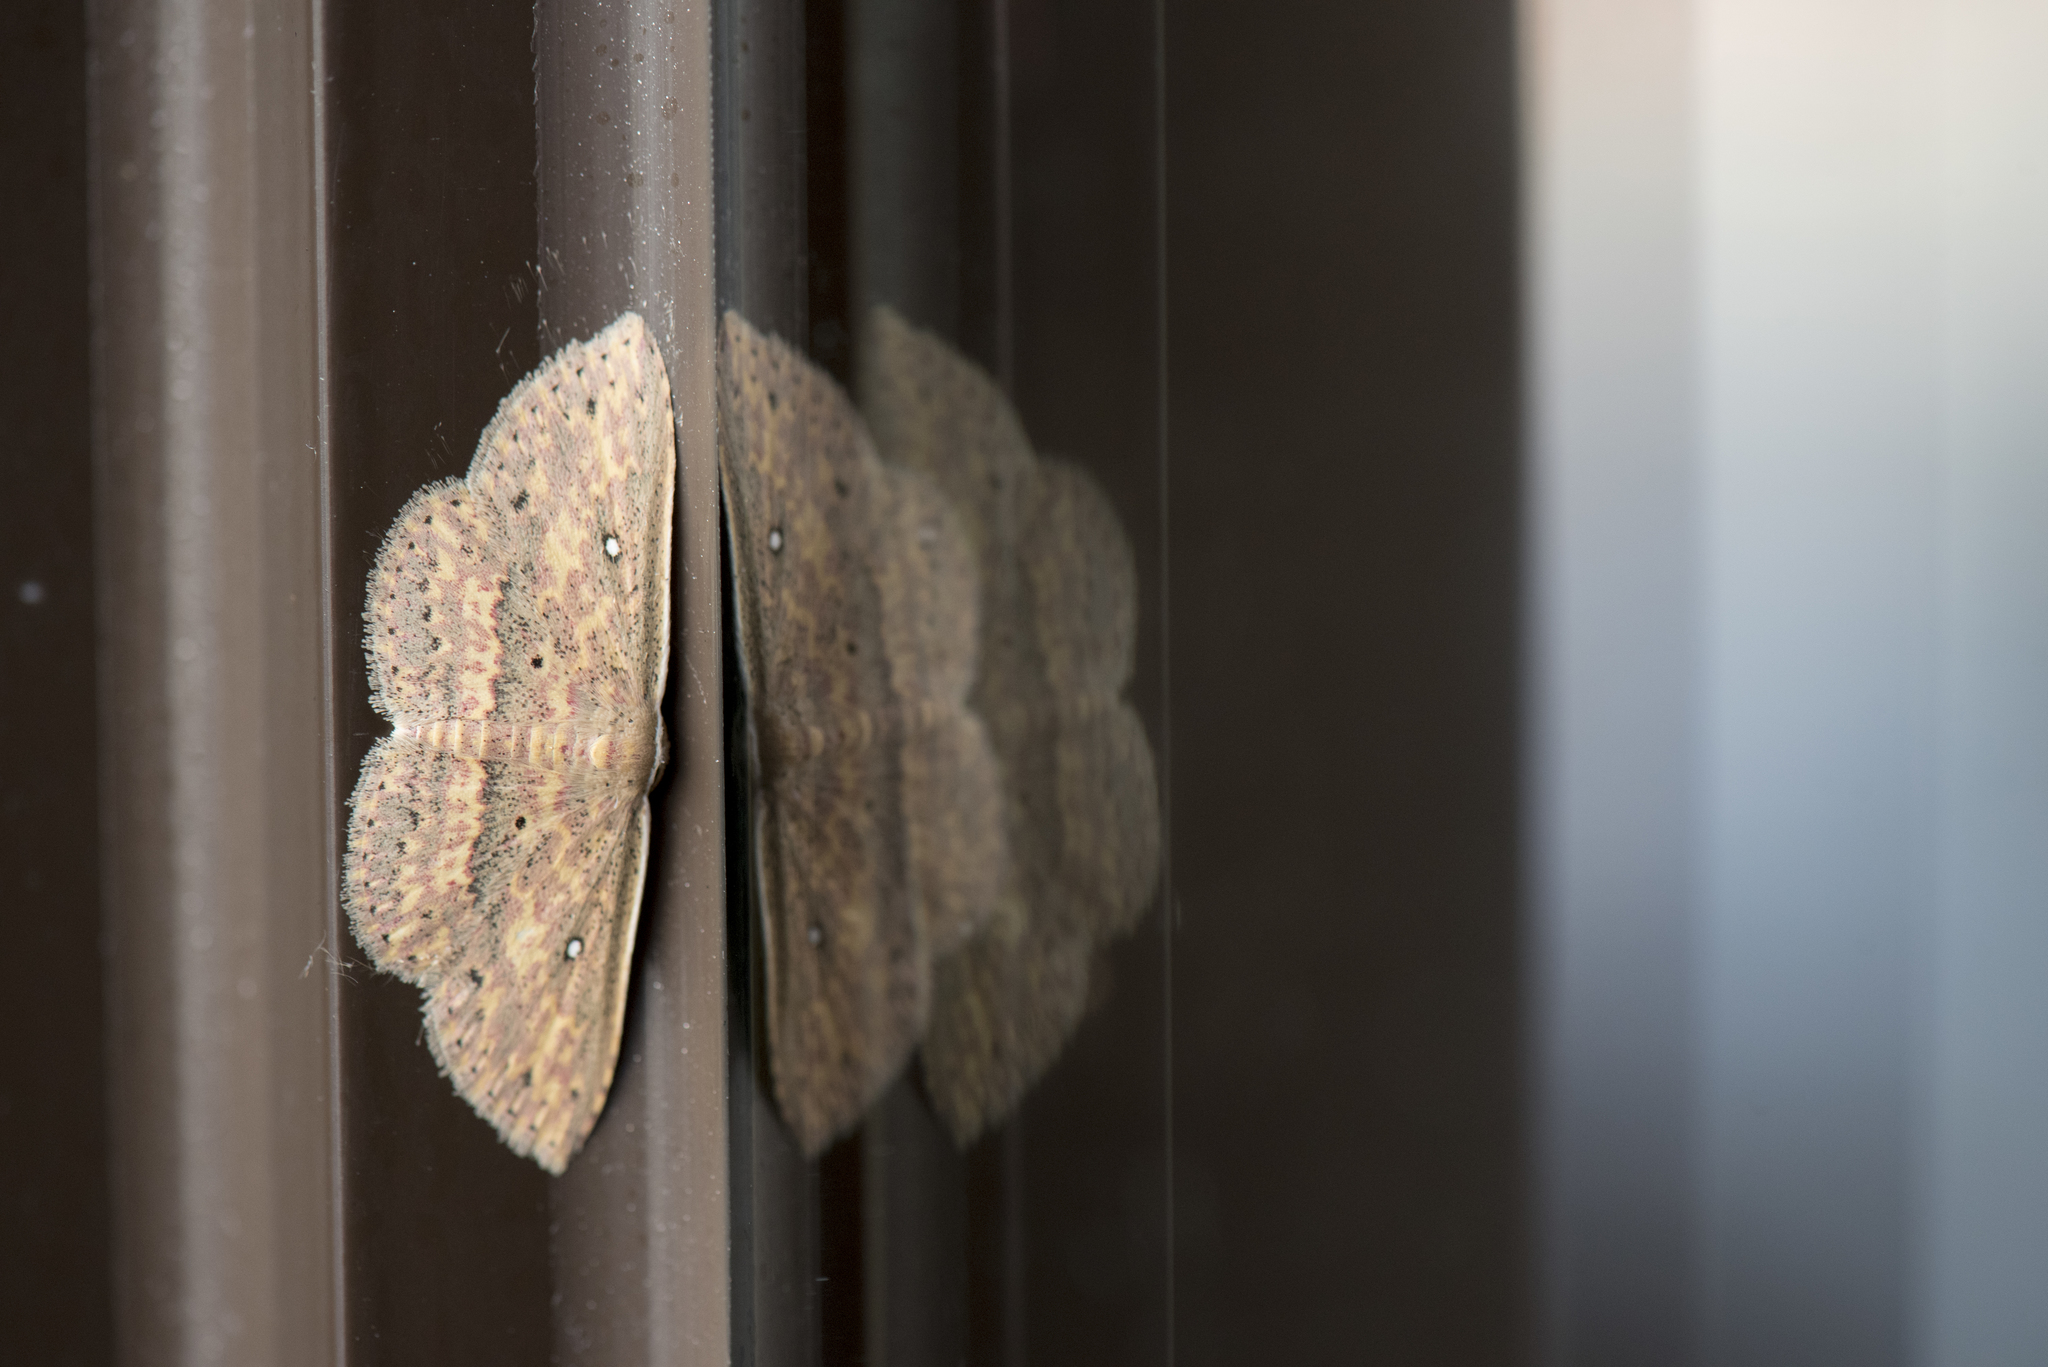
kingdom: Animalia
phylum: Arthropoda
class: Insecta
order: Lepidoptera
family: Noctuidae
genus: Hyposada
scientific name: Hyposada fasciosa
